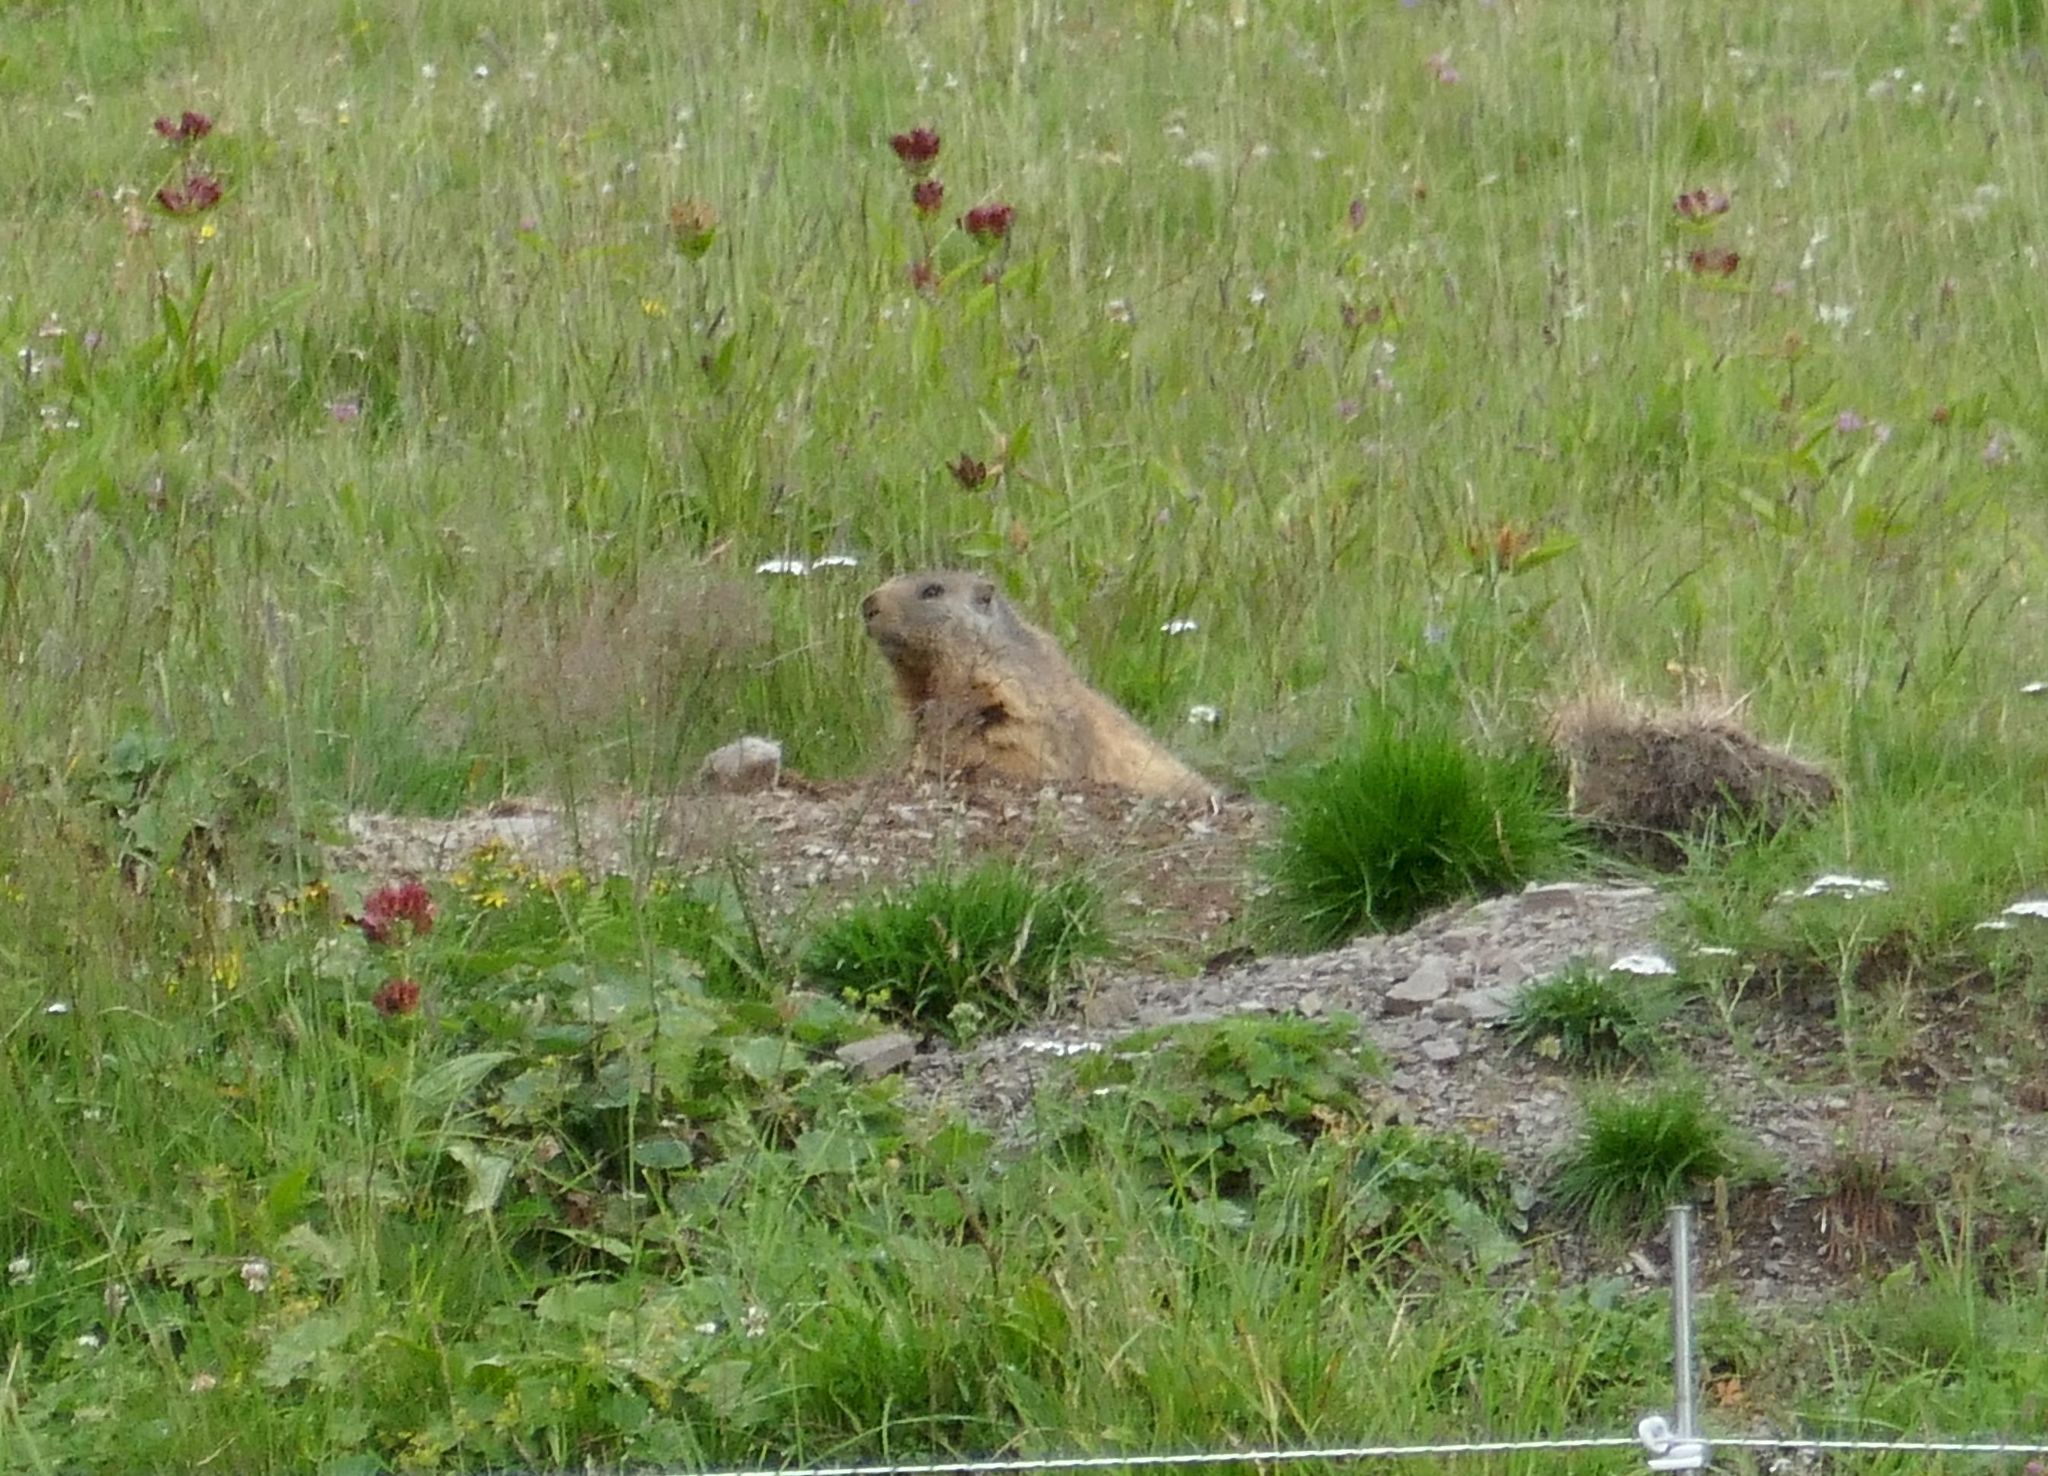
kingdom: Animalia
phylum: Chordata
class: Mammalia
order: Rodentia
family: Sciuridae
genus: Marmota
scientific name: Marmota marmota
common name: Alpine marmot
